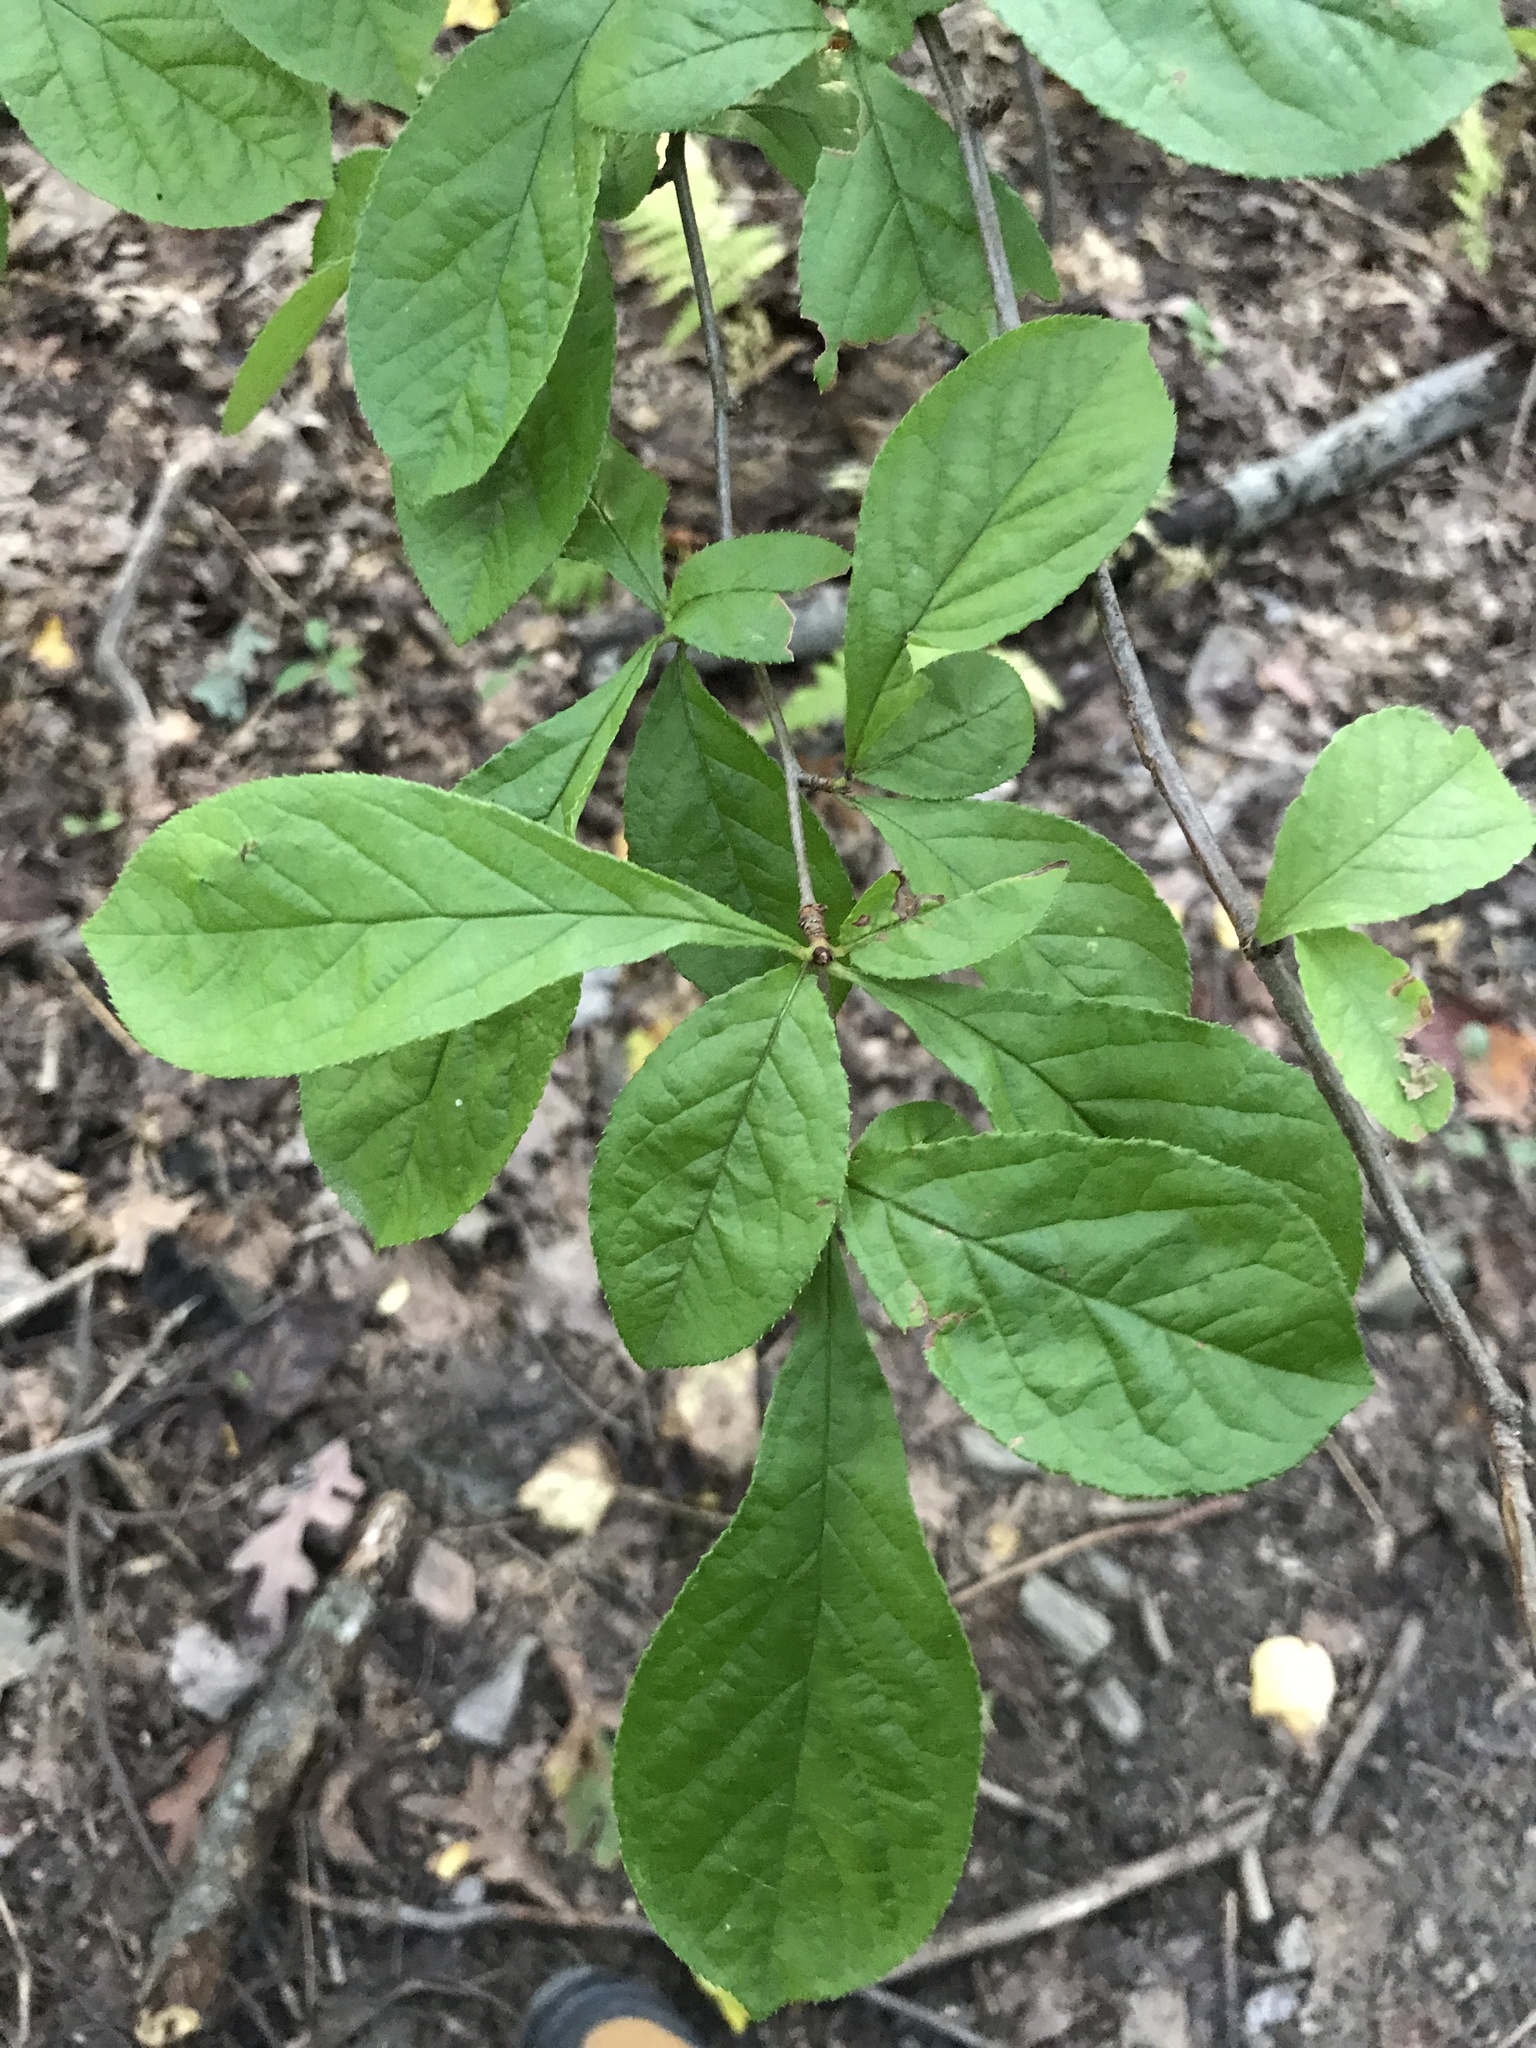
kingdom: Plantae
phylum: Tracheophyta
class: Magnoliopsida
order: Rosales
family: Rosaceae
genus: Pourthiaea
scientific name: Pourthiaea villosa
